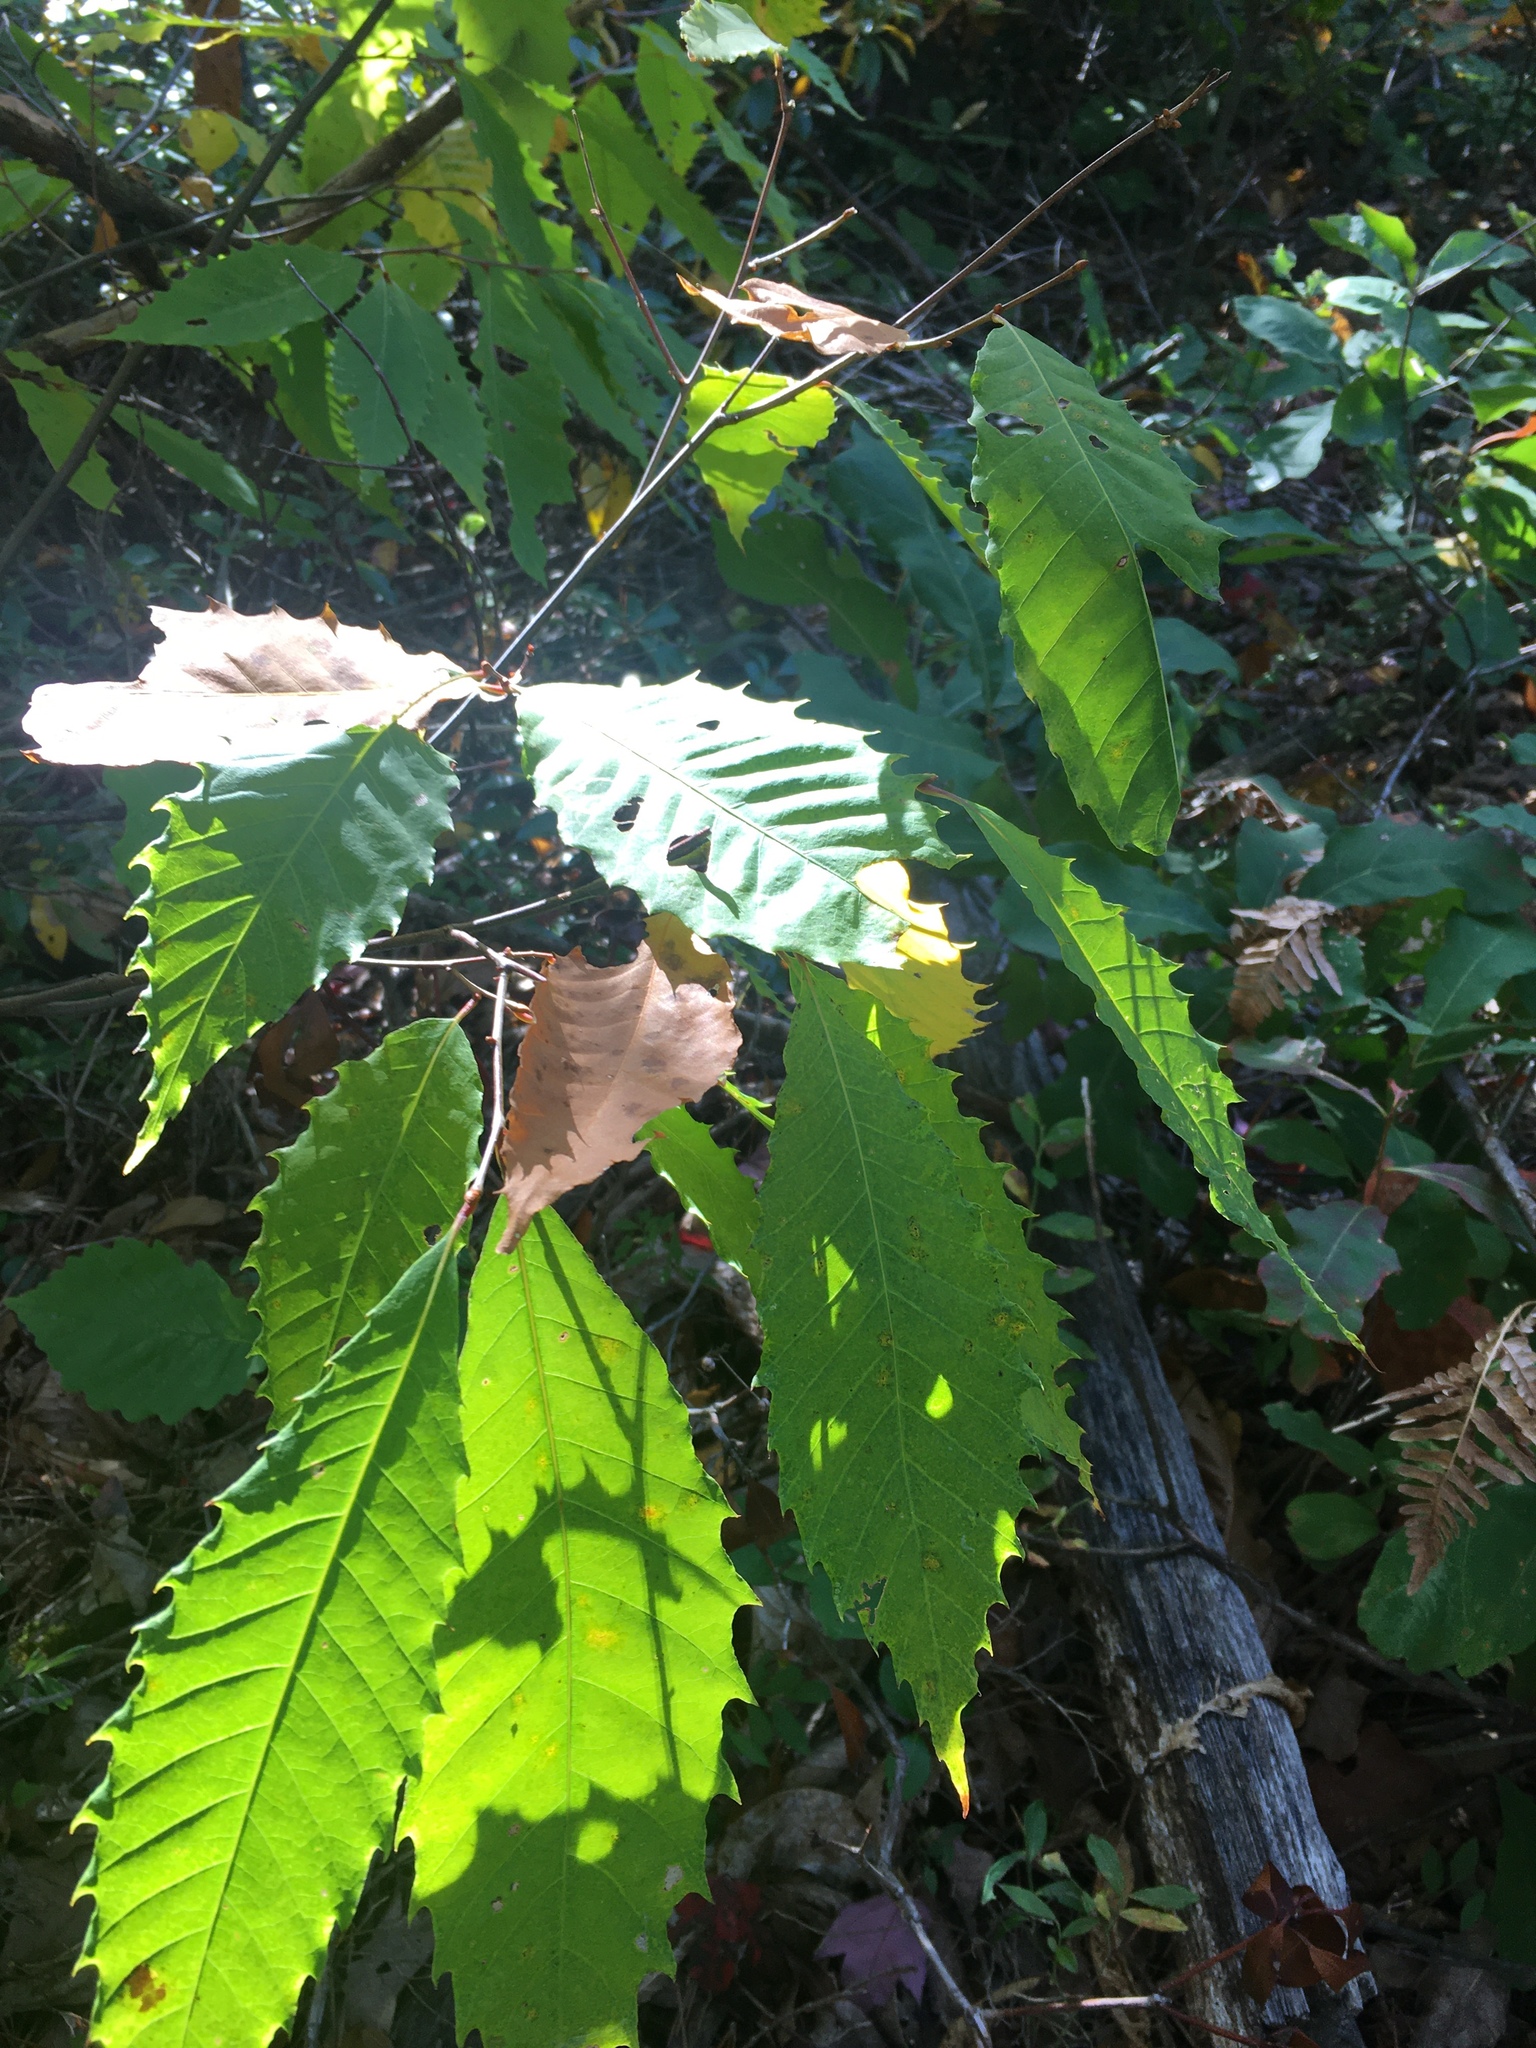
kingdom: Plantae
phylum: Tracheophyta
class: Magnoliopsida
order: Fagales
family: Fagaceae
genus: Castanea
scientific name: Castanea dentata
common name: American chestnut
